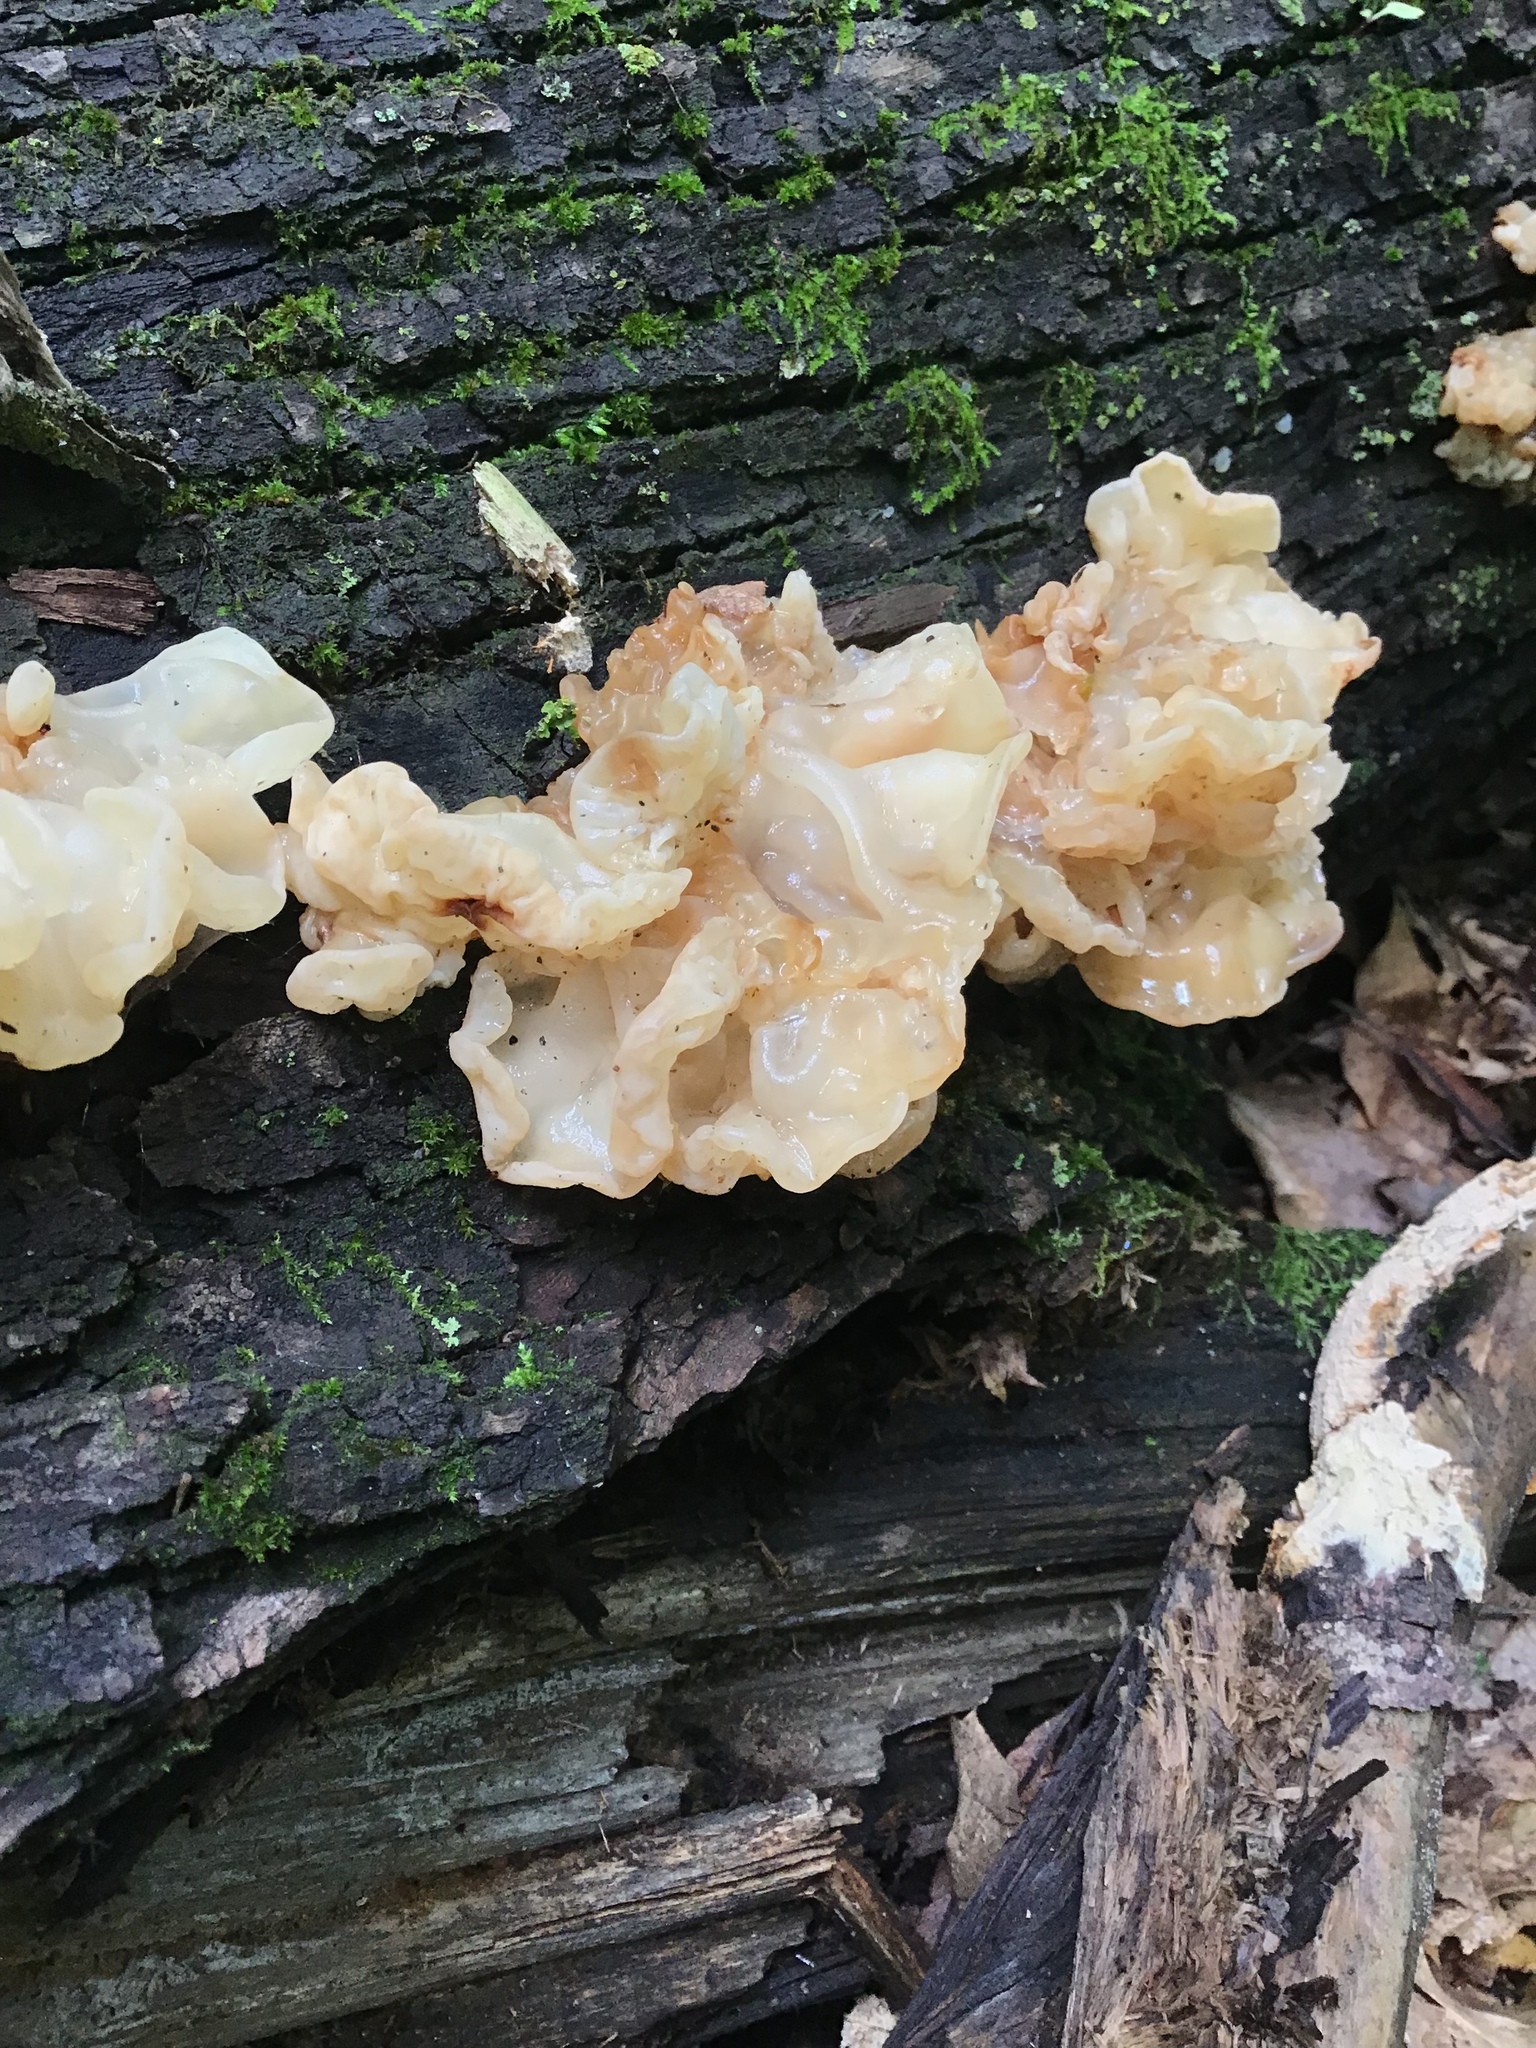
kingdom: Fungi
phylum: Basidiomycota
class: Agaricomycetes
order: Auriculariales
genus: Ductifera
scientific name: Ductifera pululahuana
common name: White jelly fungus
